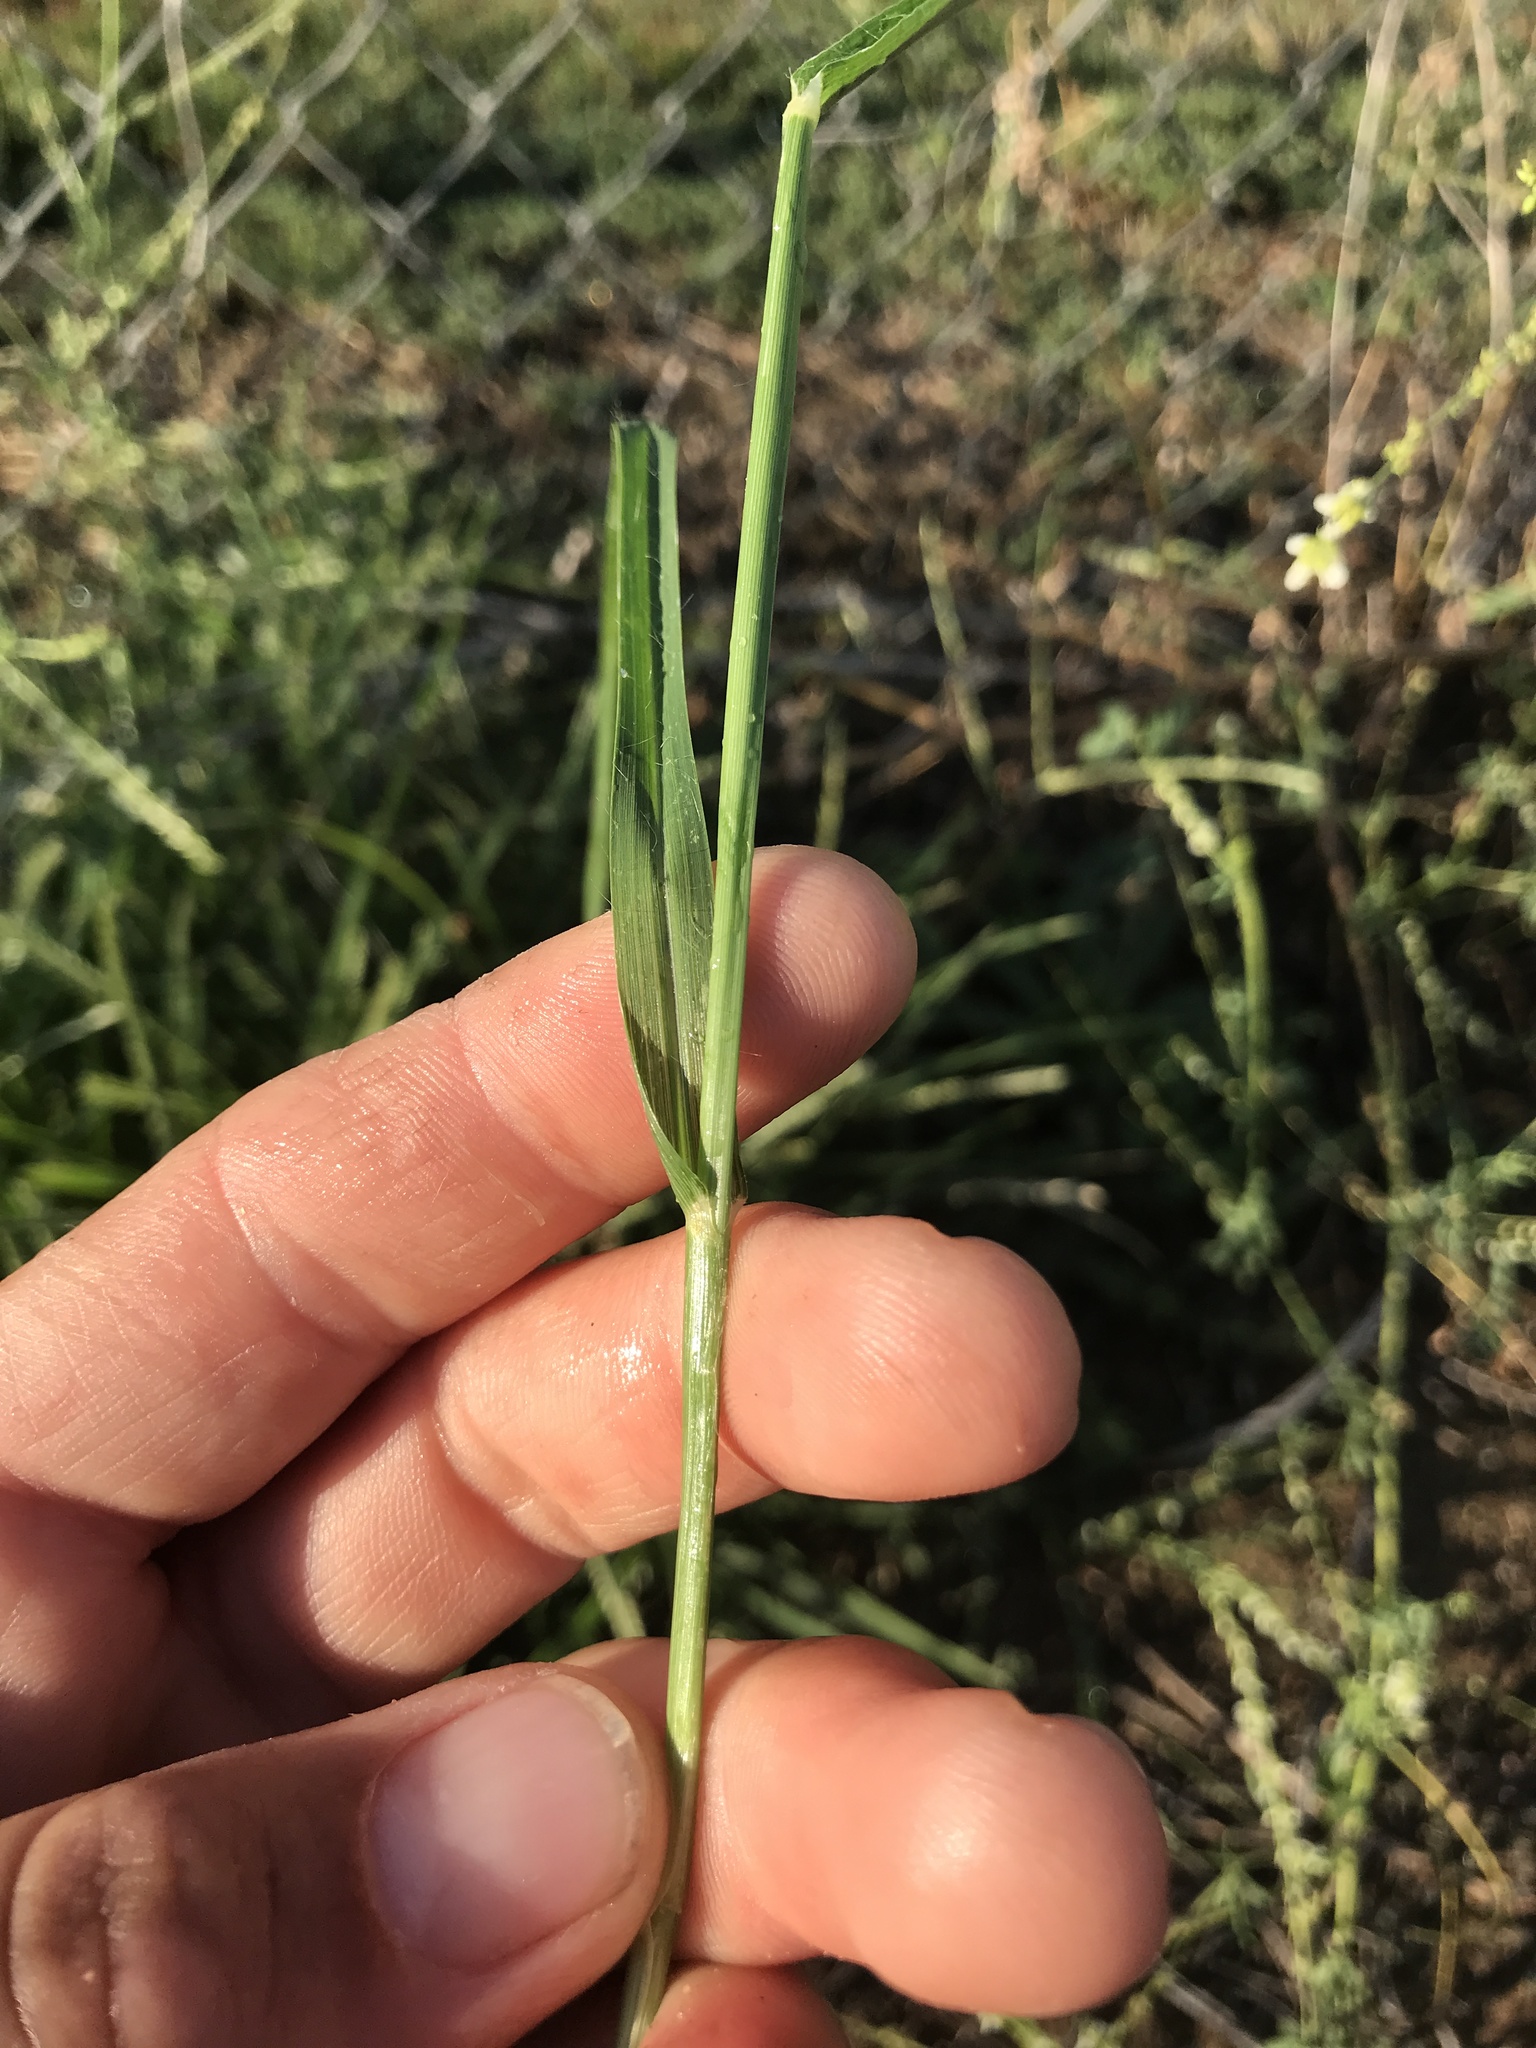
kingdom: Plantae
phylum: Tracheophyta
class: Liliopsida
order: Poales
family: Poaceae
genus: Eleusine
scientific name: Eleusine indica
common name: Yard-grass
